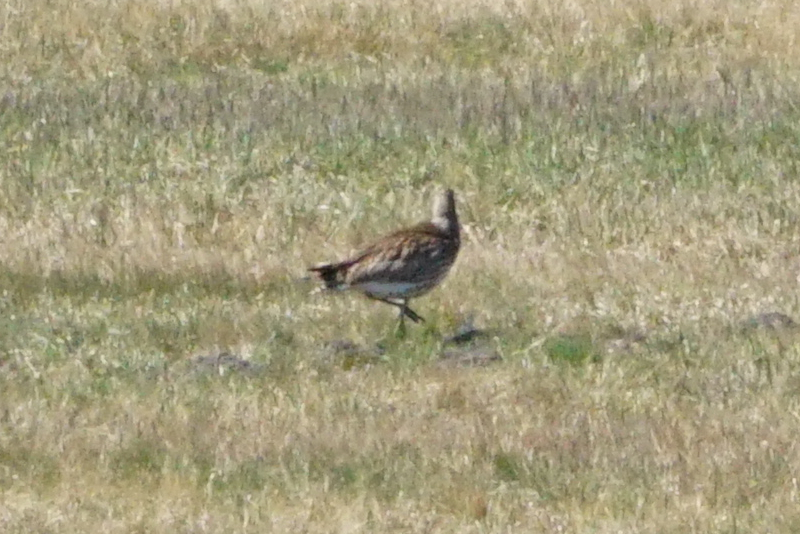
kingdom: Animalia
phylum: Chordata
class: Aves
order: Charadriiformes
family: Scolopacidae
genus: Numenius
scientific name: Numenius arquata
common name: Eurasian curlew
